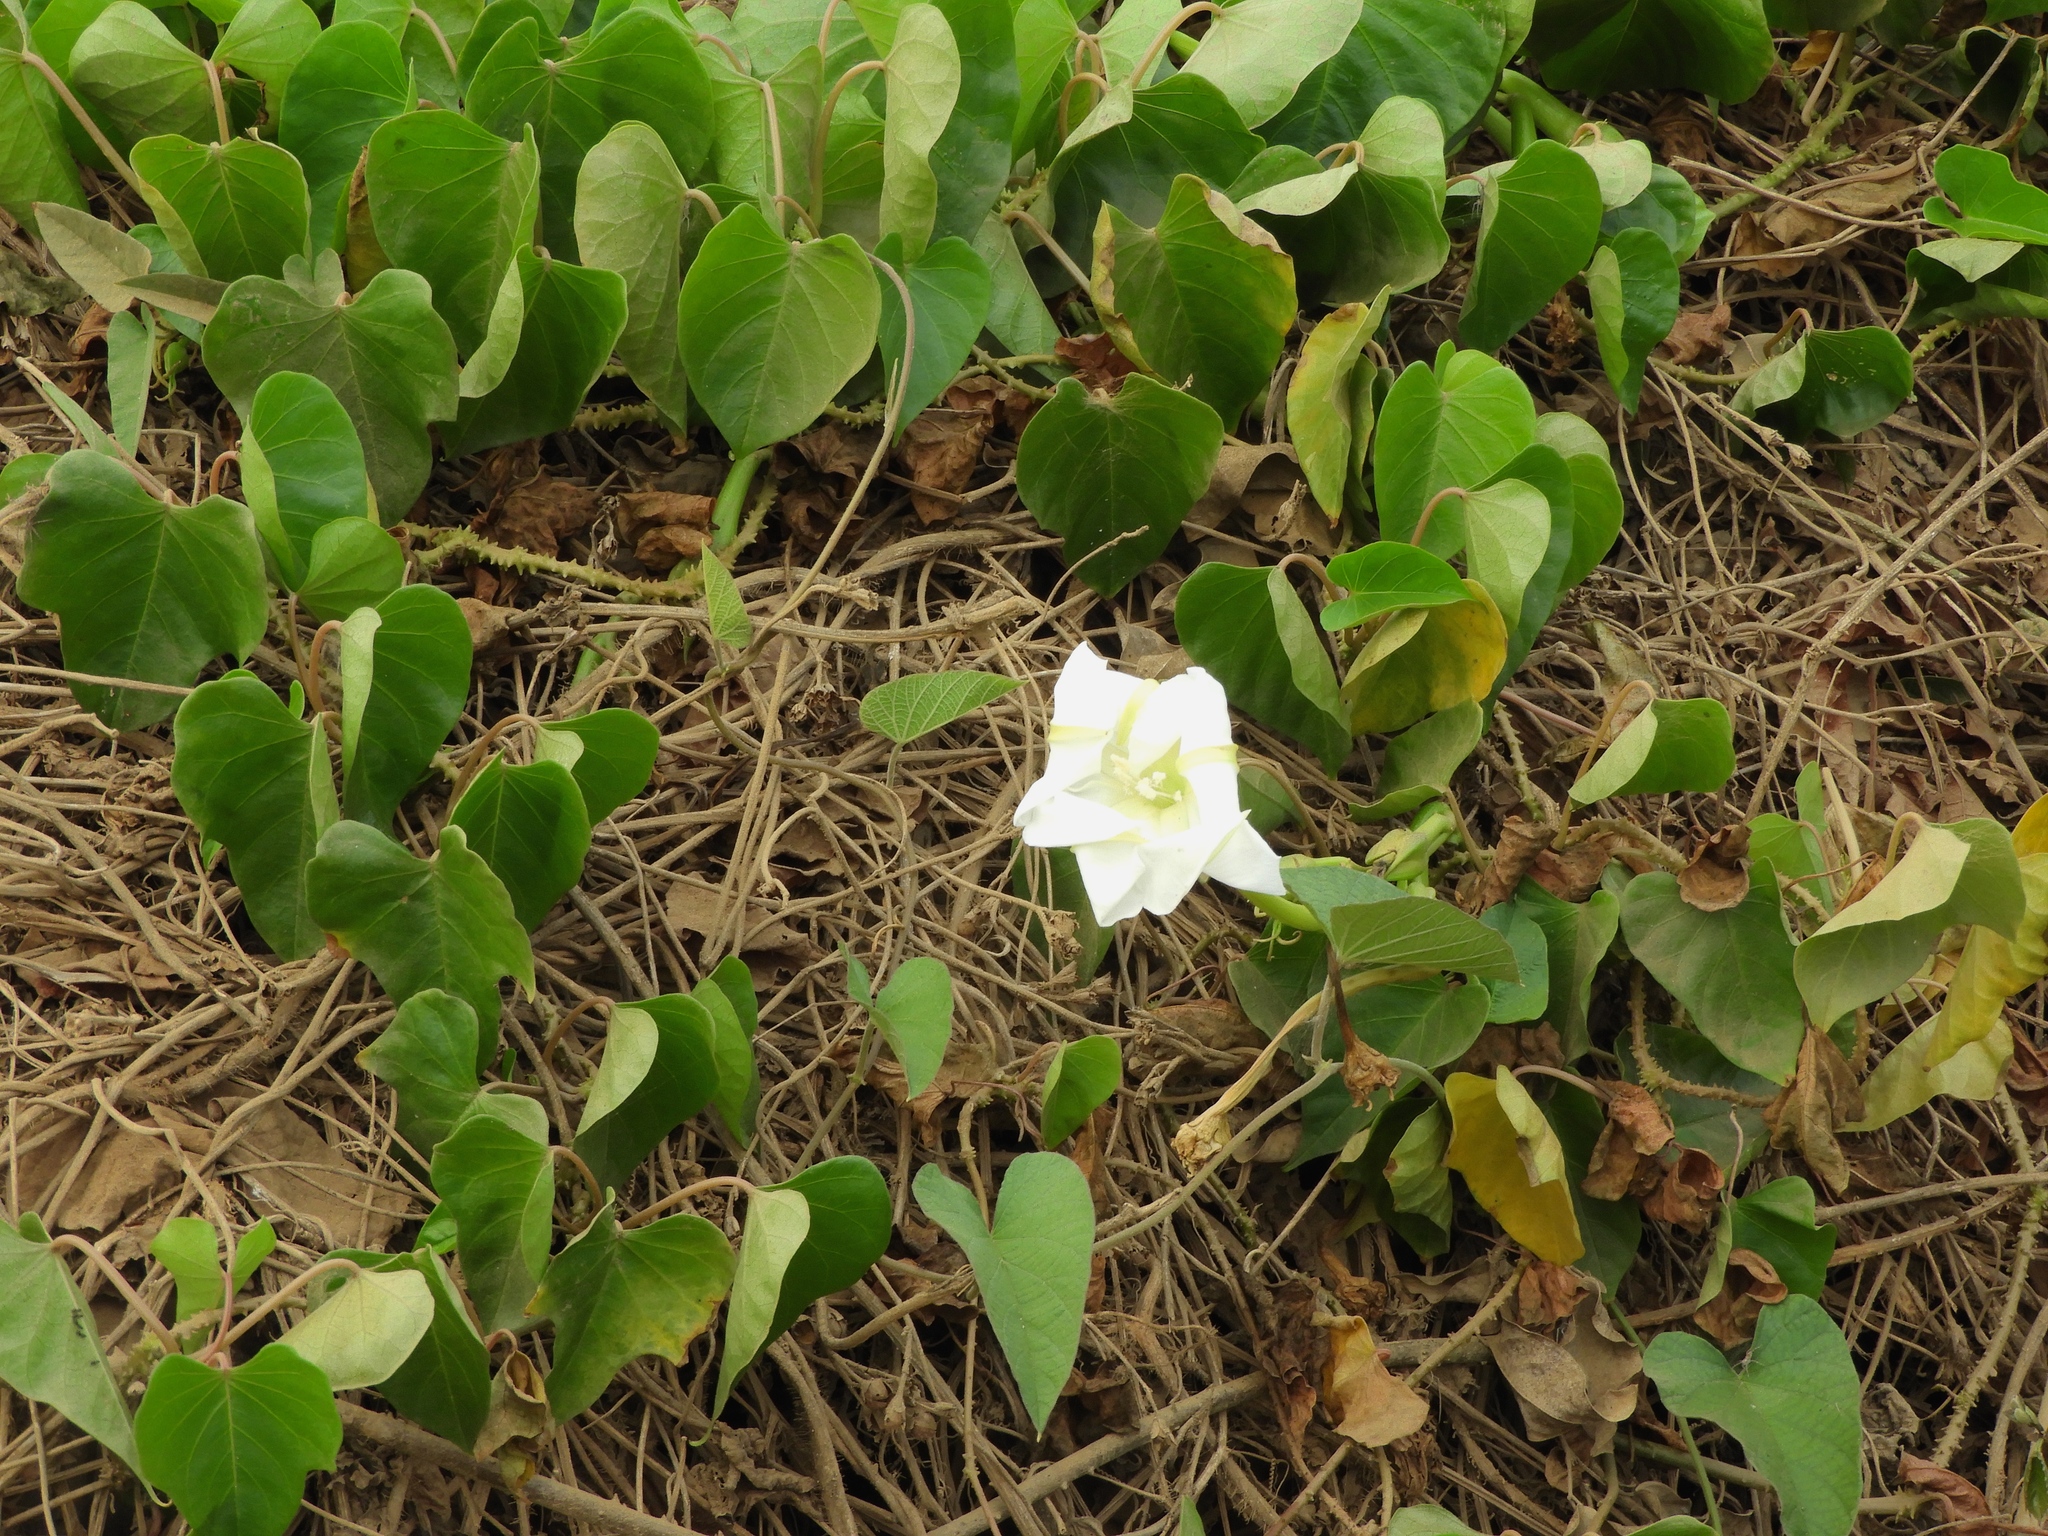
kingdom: Plantae
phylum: Tracheophyta
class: Magnoliopsida
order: Solanales
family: Convolvulaceae
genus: Ipomoea
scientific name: Ipomoea alba
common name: Moonflower
